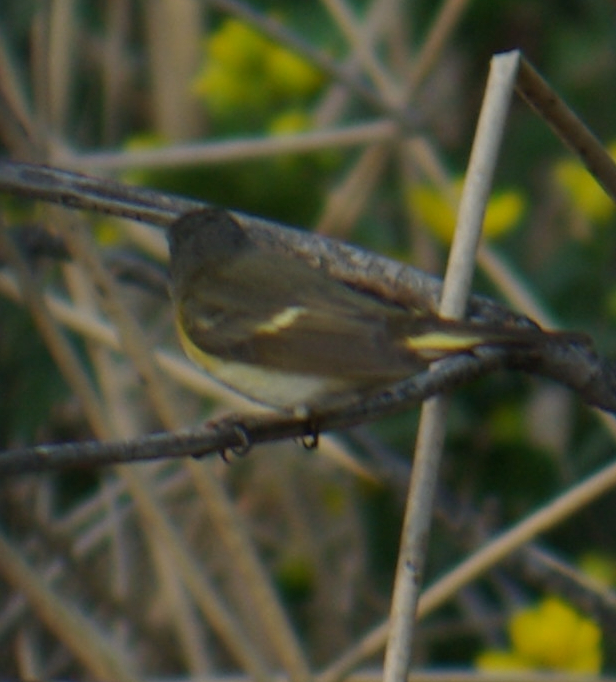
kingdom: Animalia
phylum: Chordata
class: Aves
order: Passeriformes
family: Parulidae
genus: Setophaga
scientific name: Setophaga ruticilla
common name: American redstart
